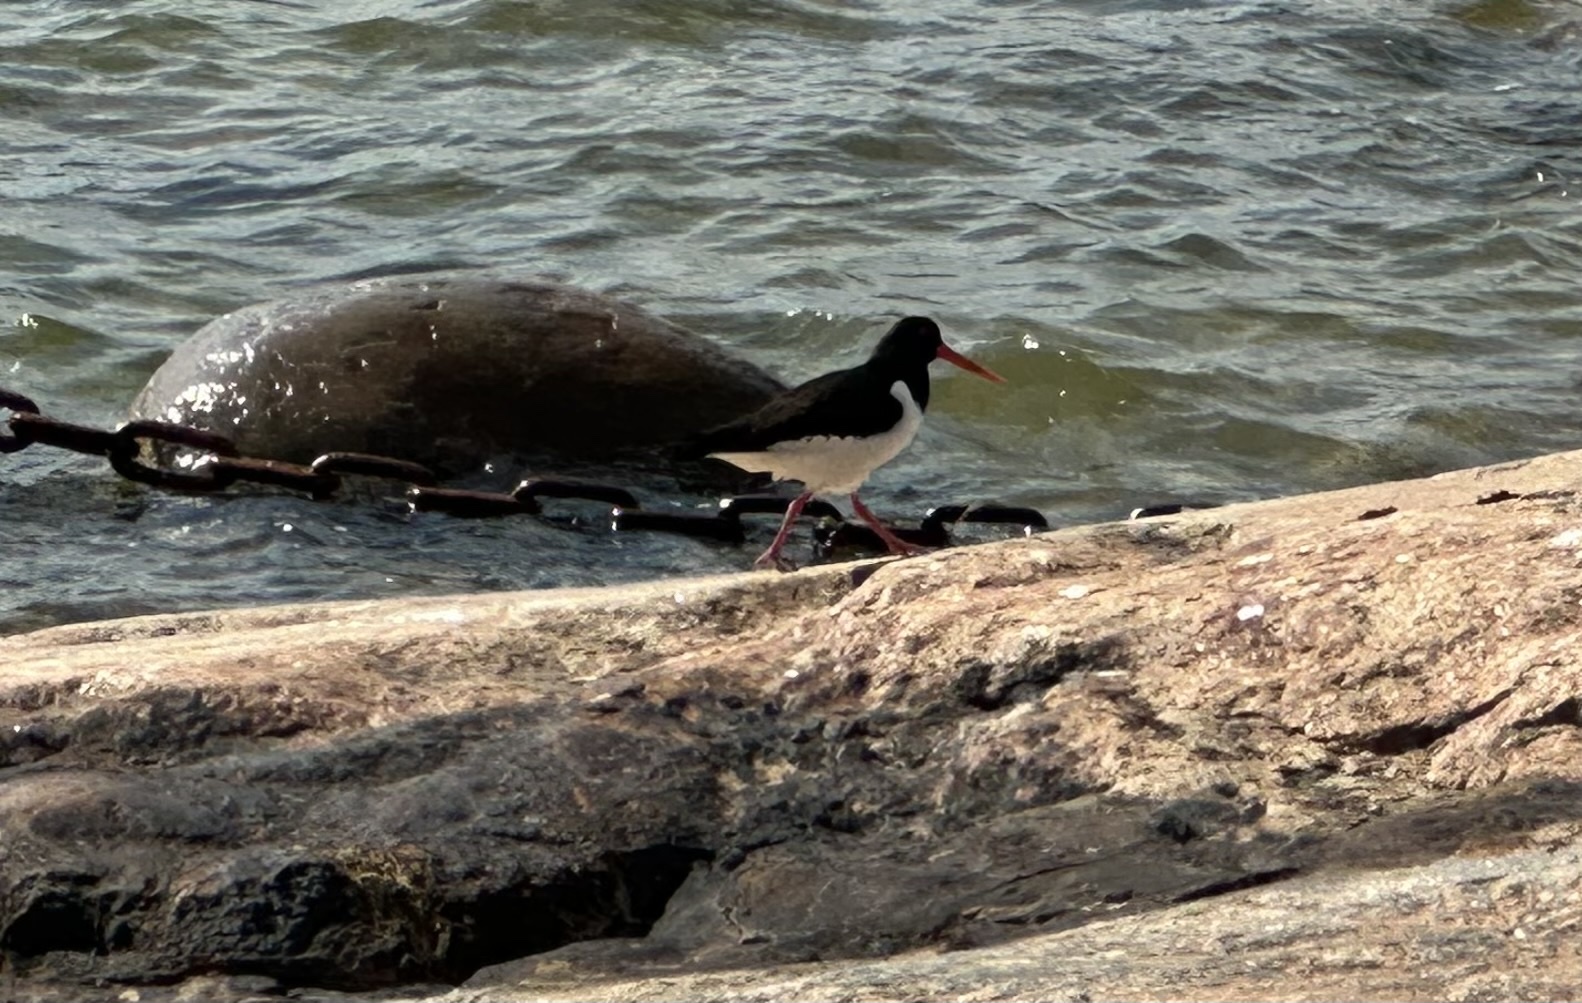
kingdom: Animalia
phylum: Chordata
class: Aves
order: Charadriiformes
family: Haematopodidae
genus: Haematopus
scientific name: Haematopus ostralegus
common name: Eurasian oystercatcher
